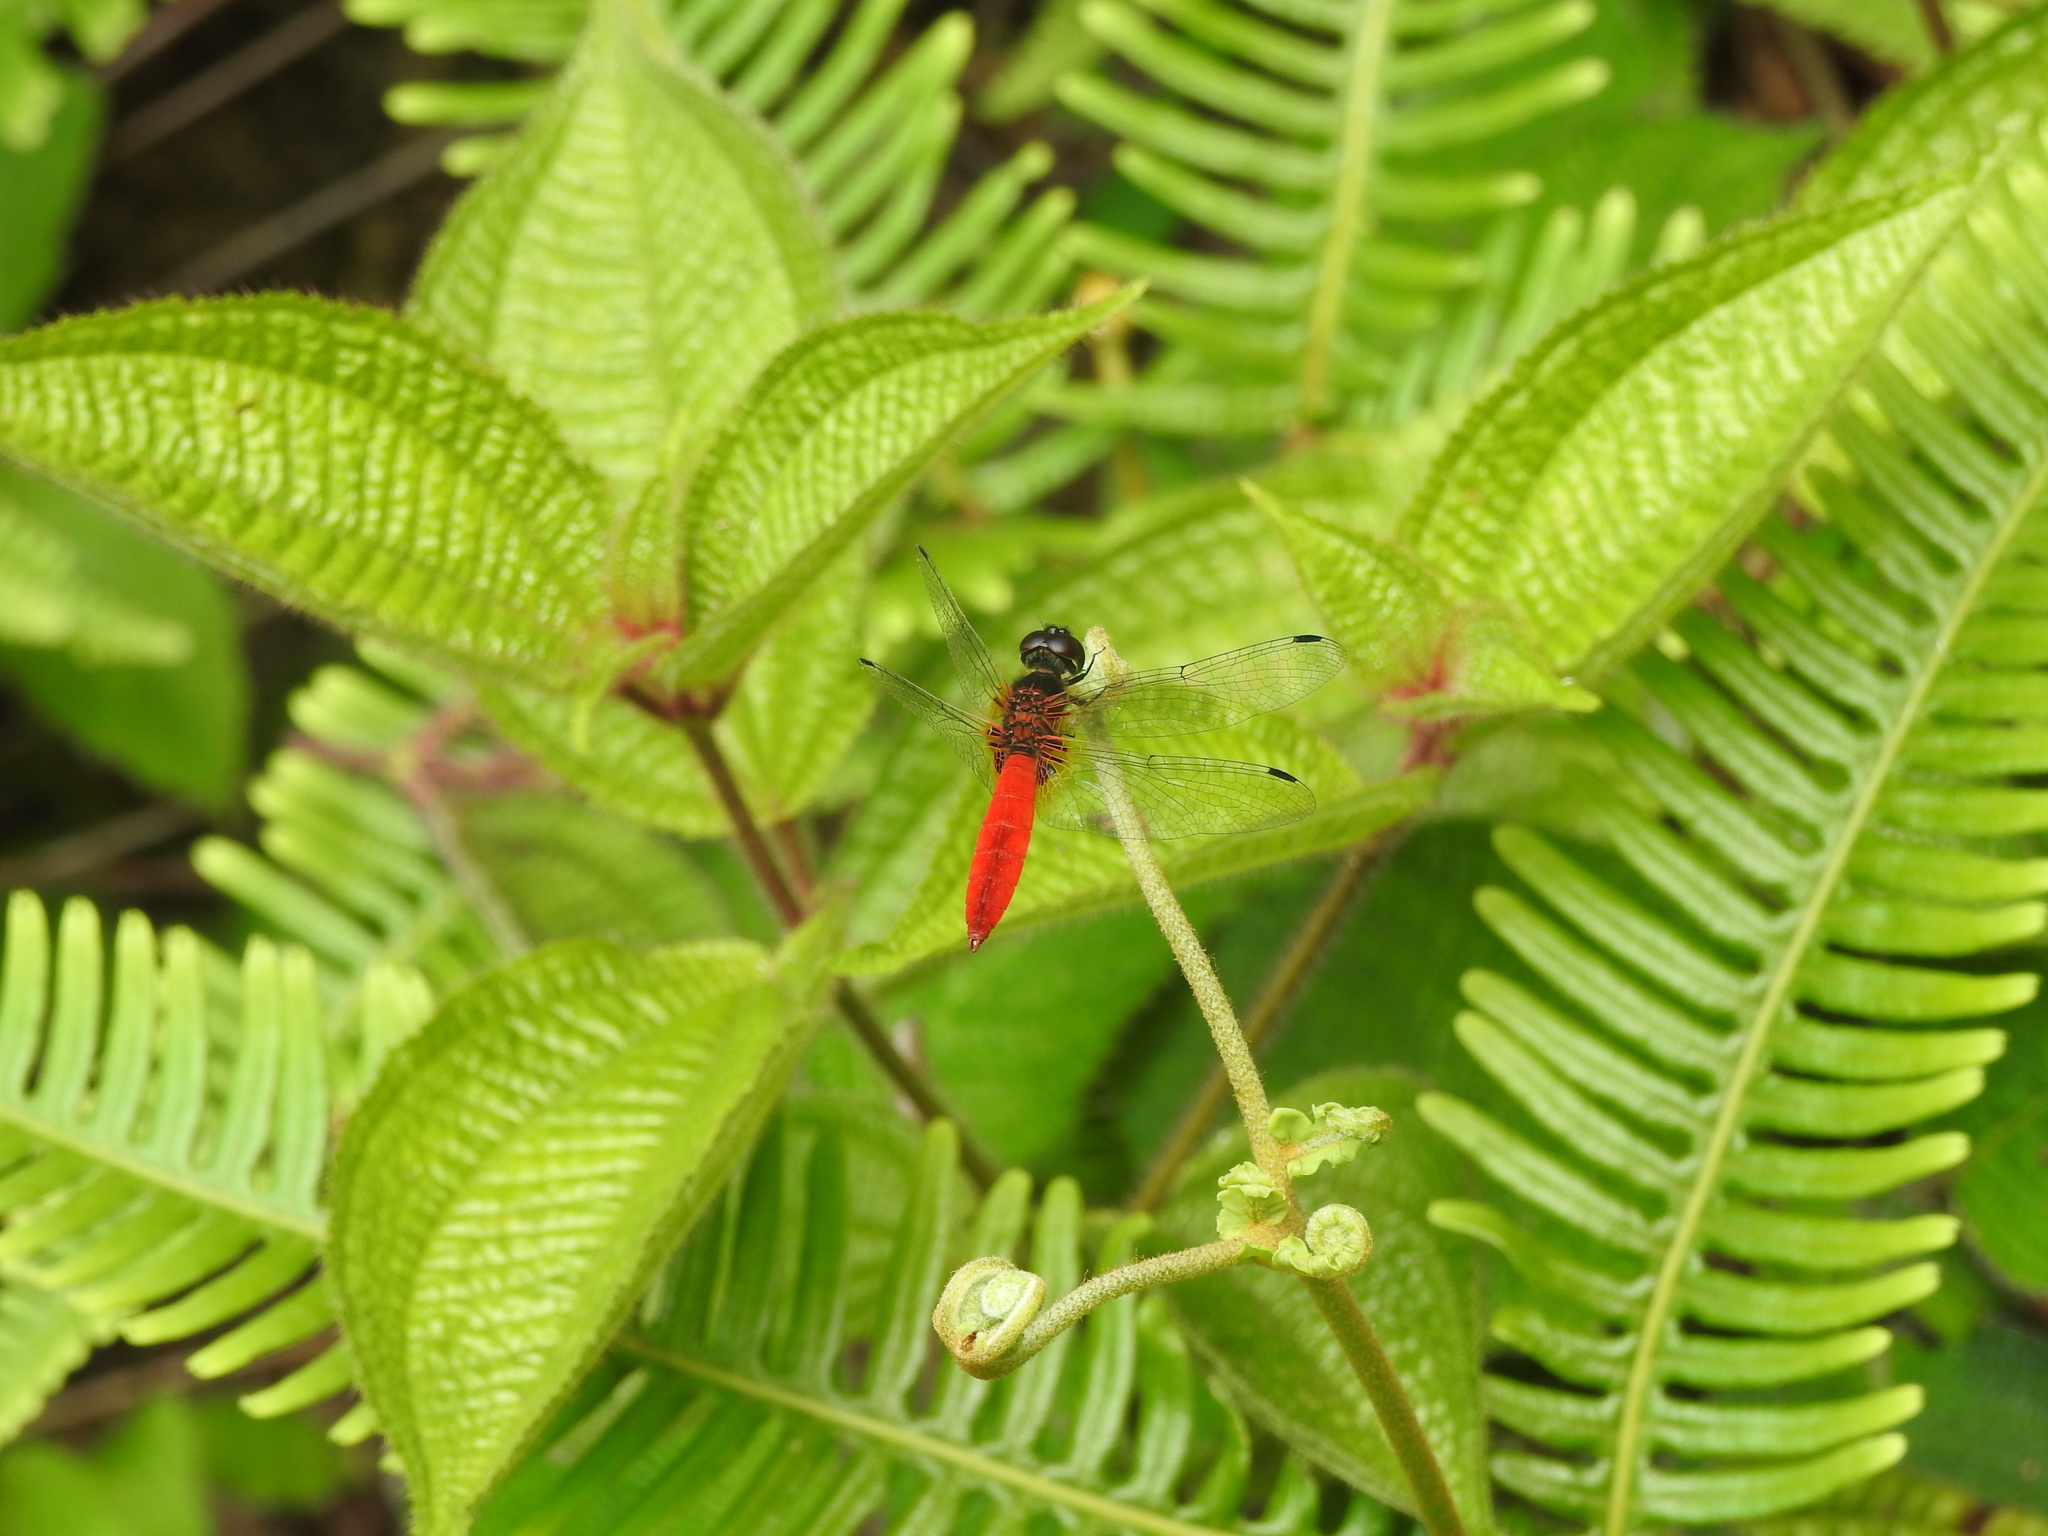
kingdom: Animalia
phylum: Arthropoda
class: Insecta
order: Odonata
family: Libellulidae
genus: Aethriamanta
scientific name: Aethriamanta brevipennis
